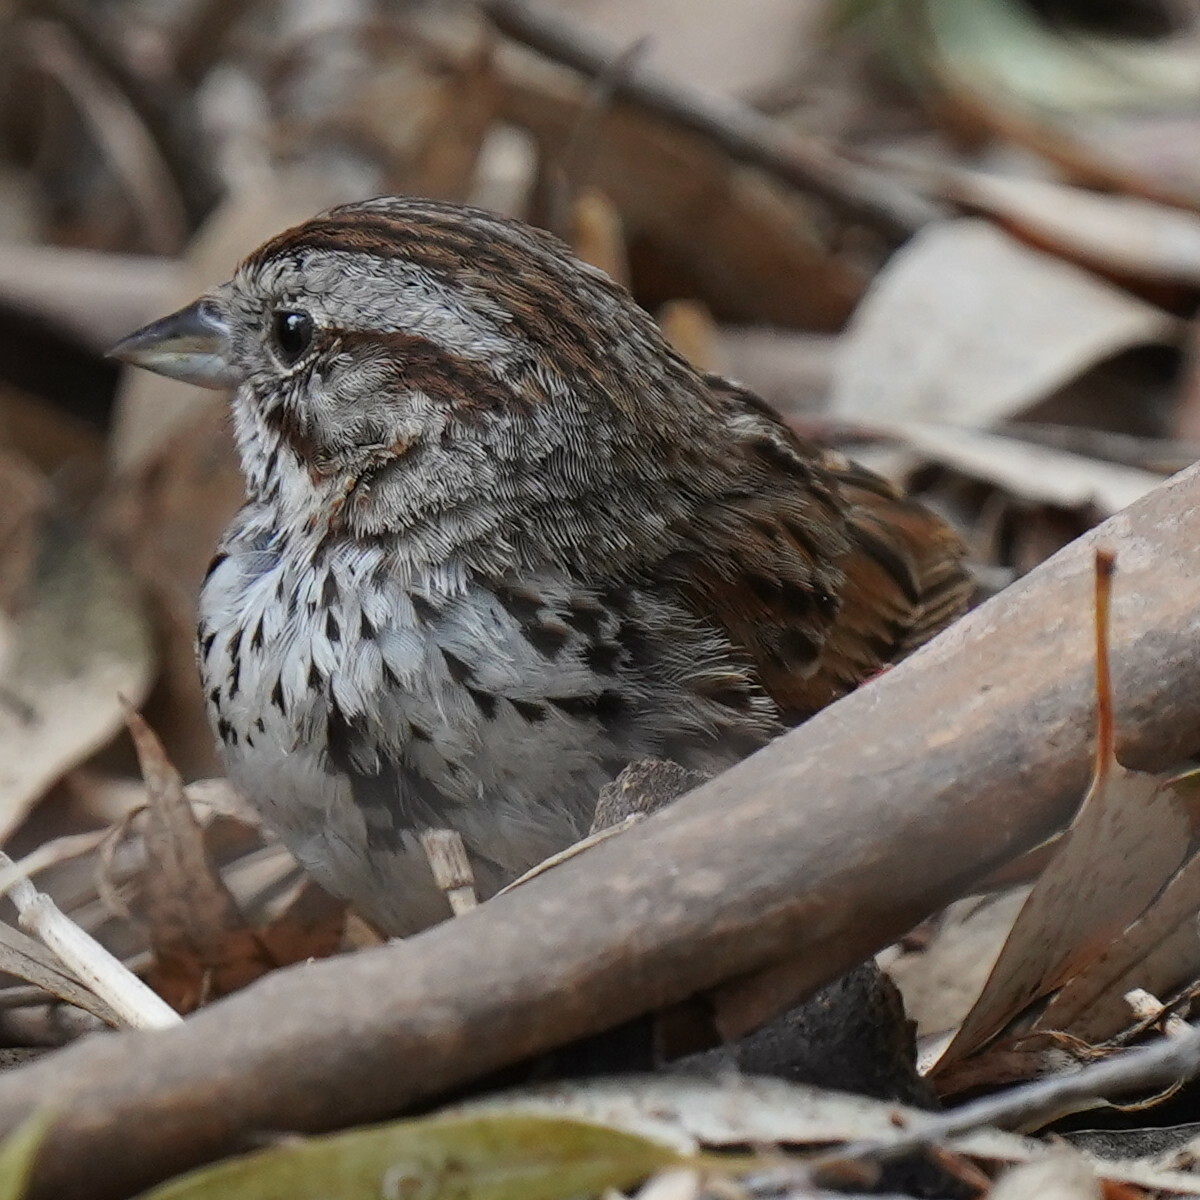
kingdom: Animalia
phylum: Chordata
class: Aves
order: Passeriformes
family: Passerellidae
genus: Melospiza
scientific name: Melospiza melodia
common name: Song sparrow
